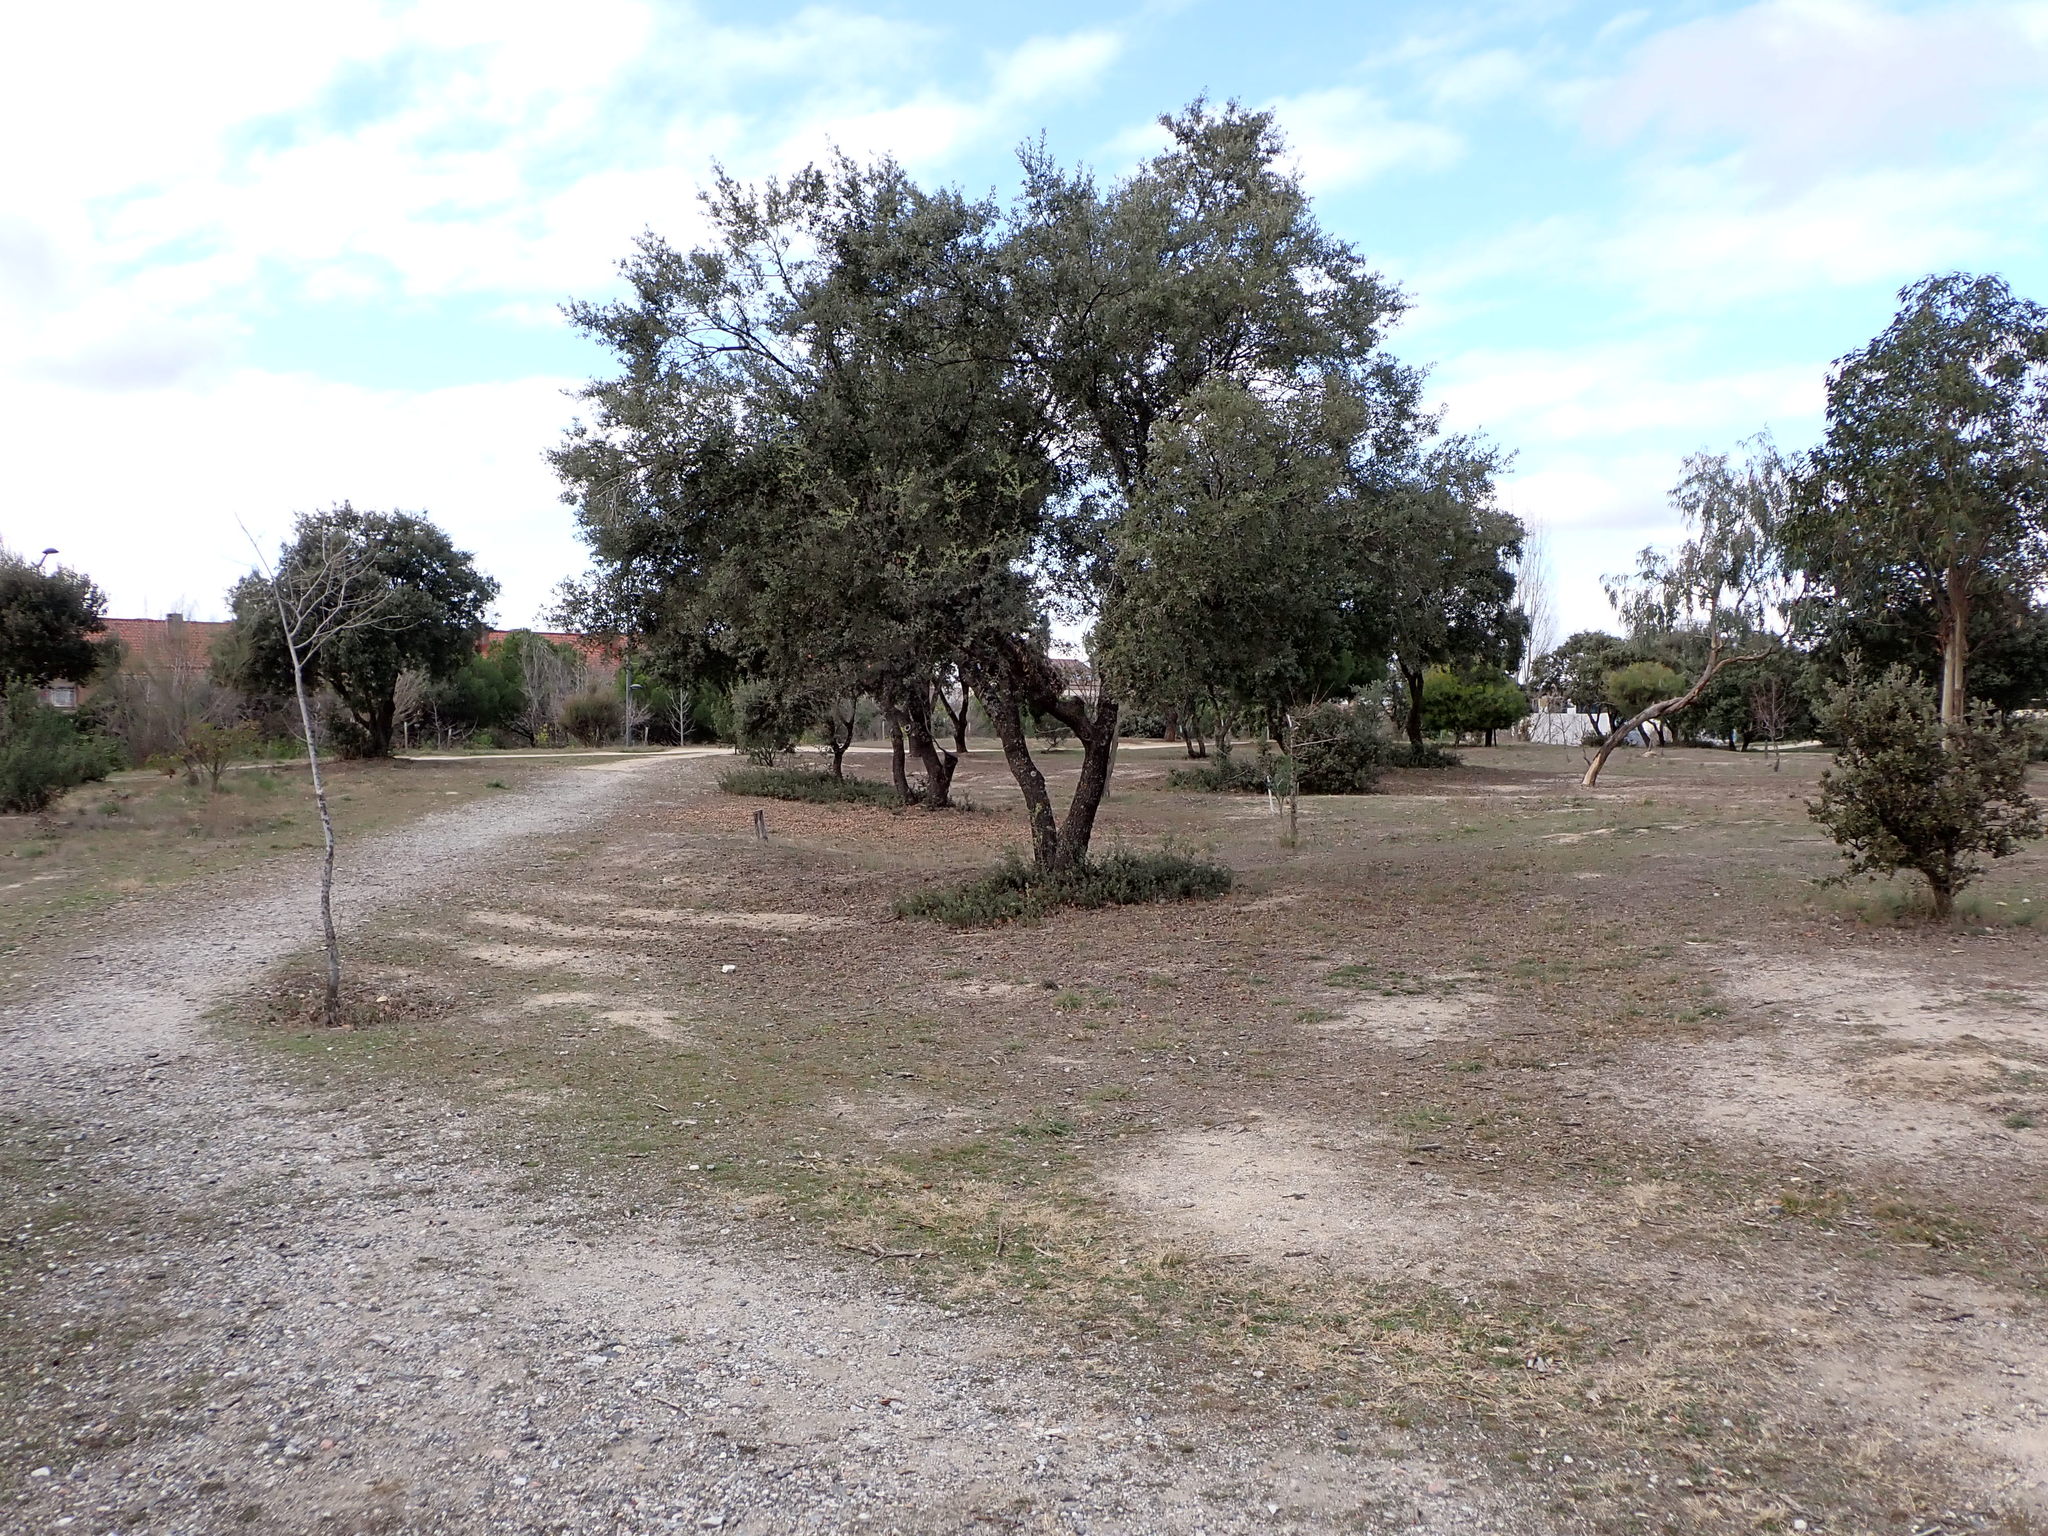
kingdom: Plantae
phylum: Tracheophyta
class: Magnoliopsida
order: Fagales
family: Fagaceae
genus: Quercus
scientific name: Quercus rotundifolia
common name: Holm oak
